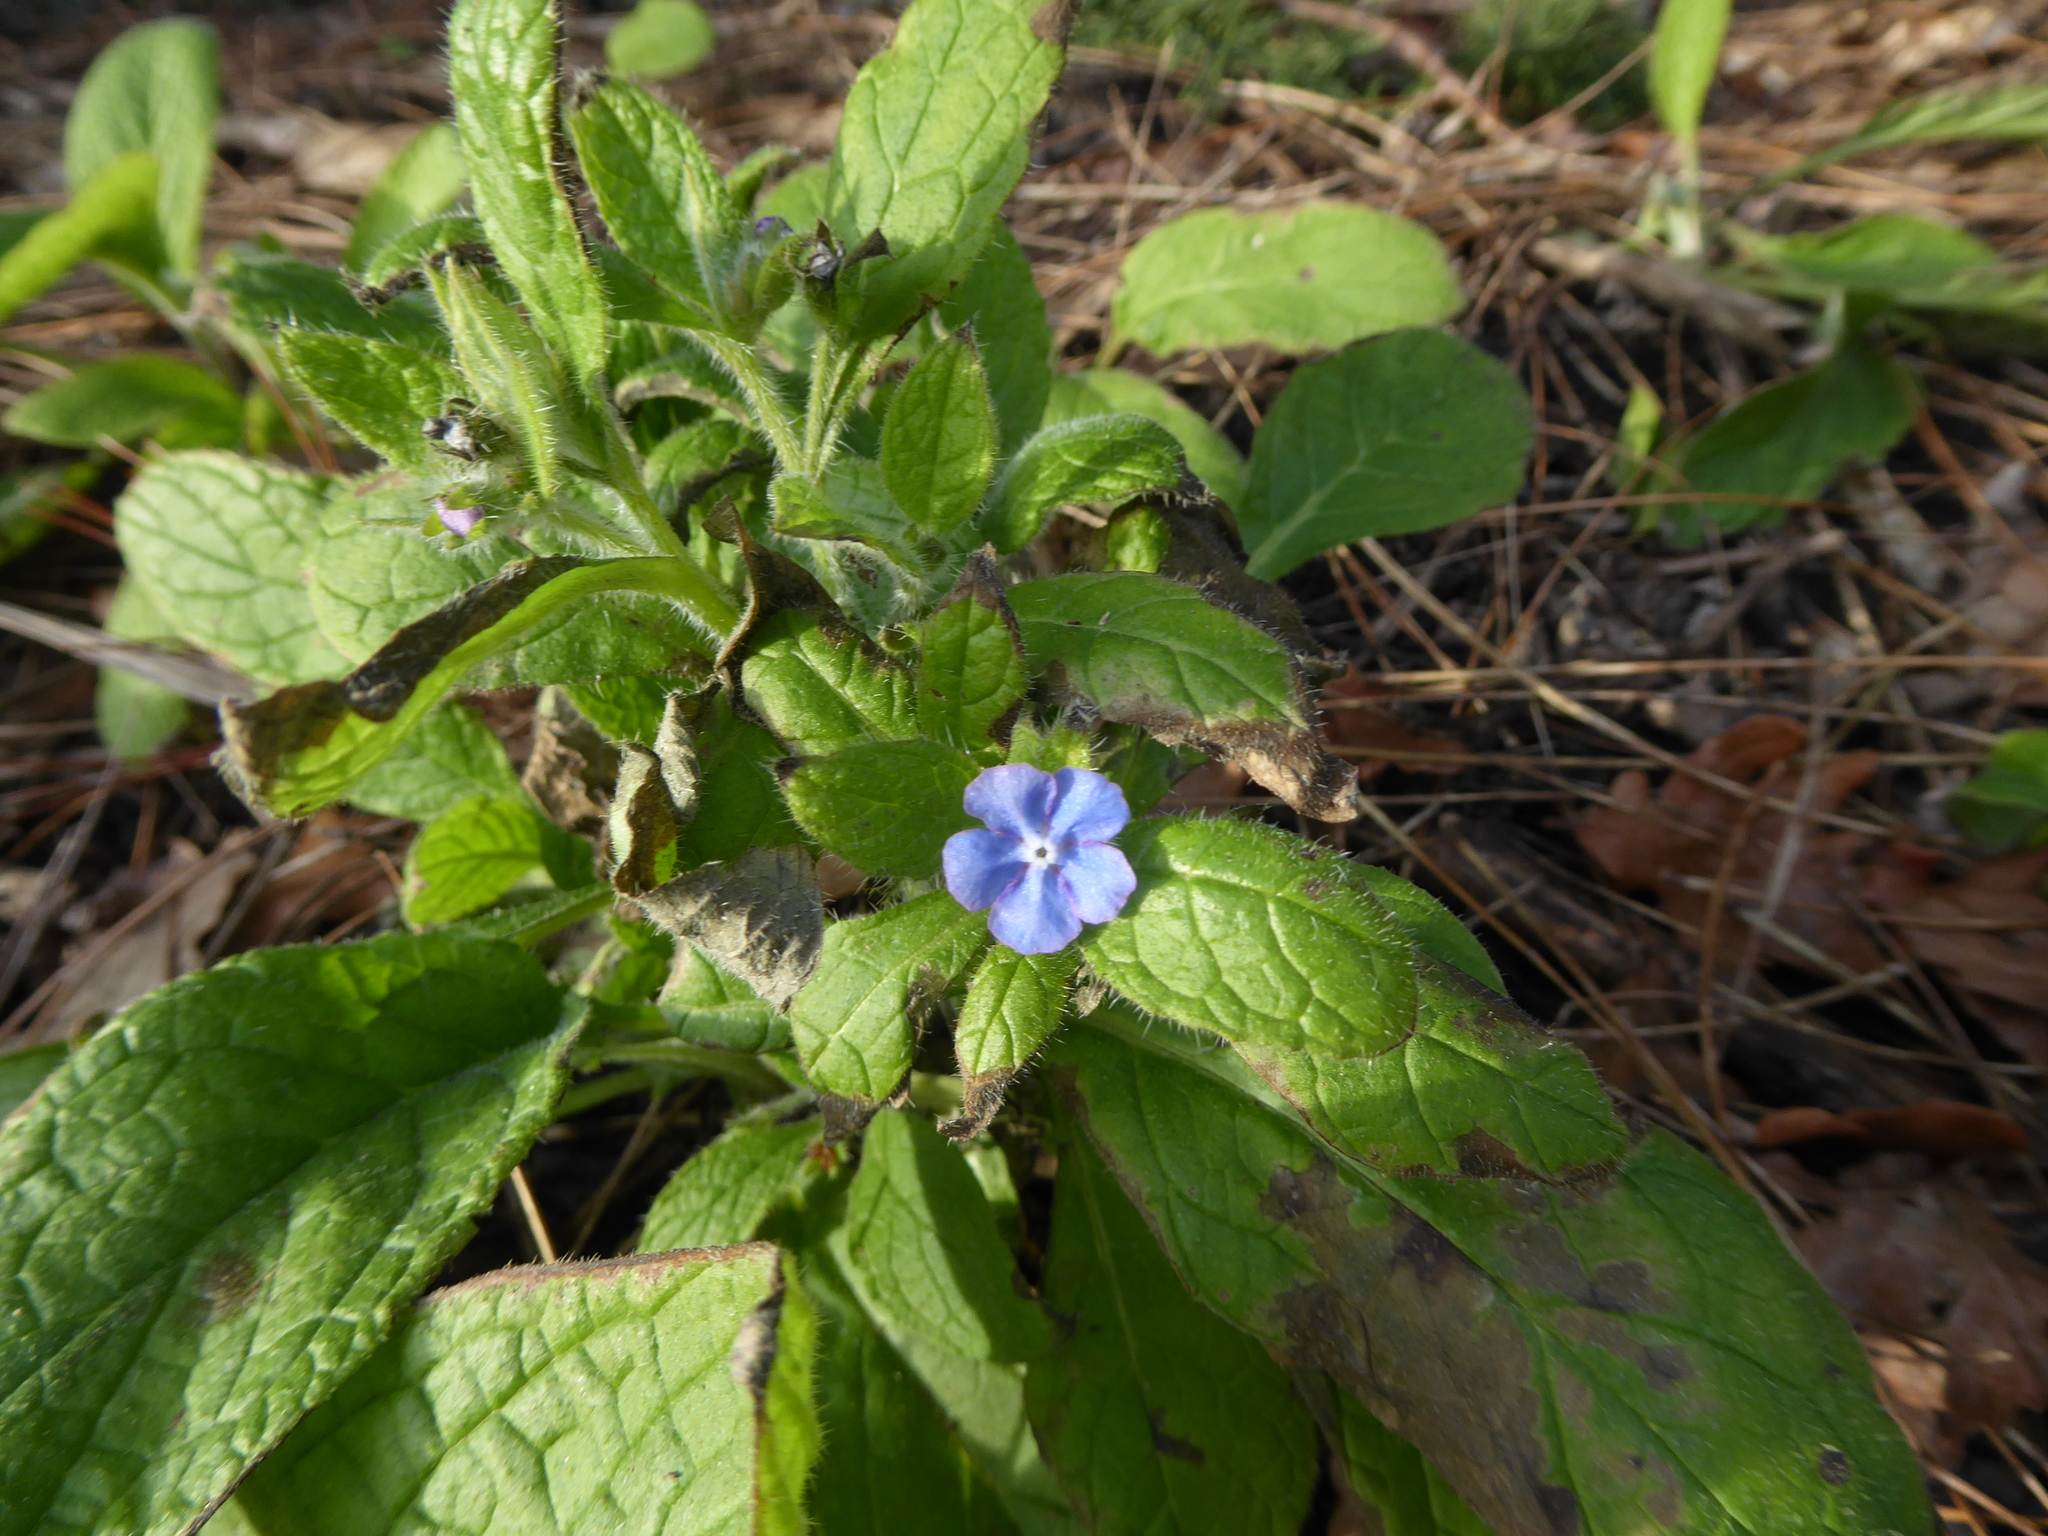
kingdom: Plantae
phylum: Tracheophyta
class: Magnoliopsida
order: Boraginales
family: Boraginaceae
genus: Pentaglottis
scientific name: Pentaglottis sempervirens
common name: Green alkanet
